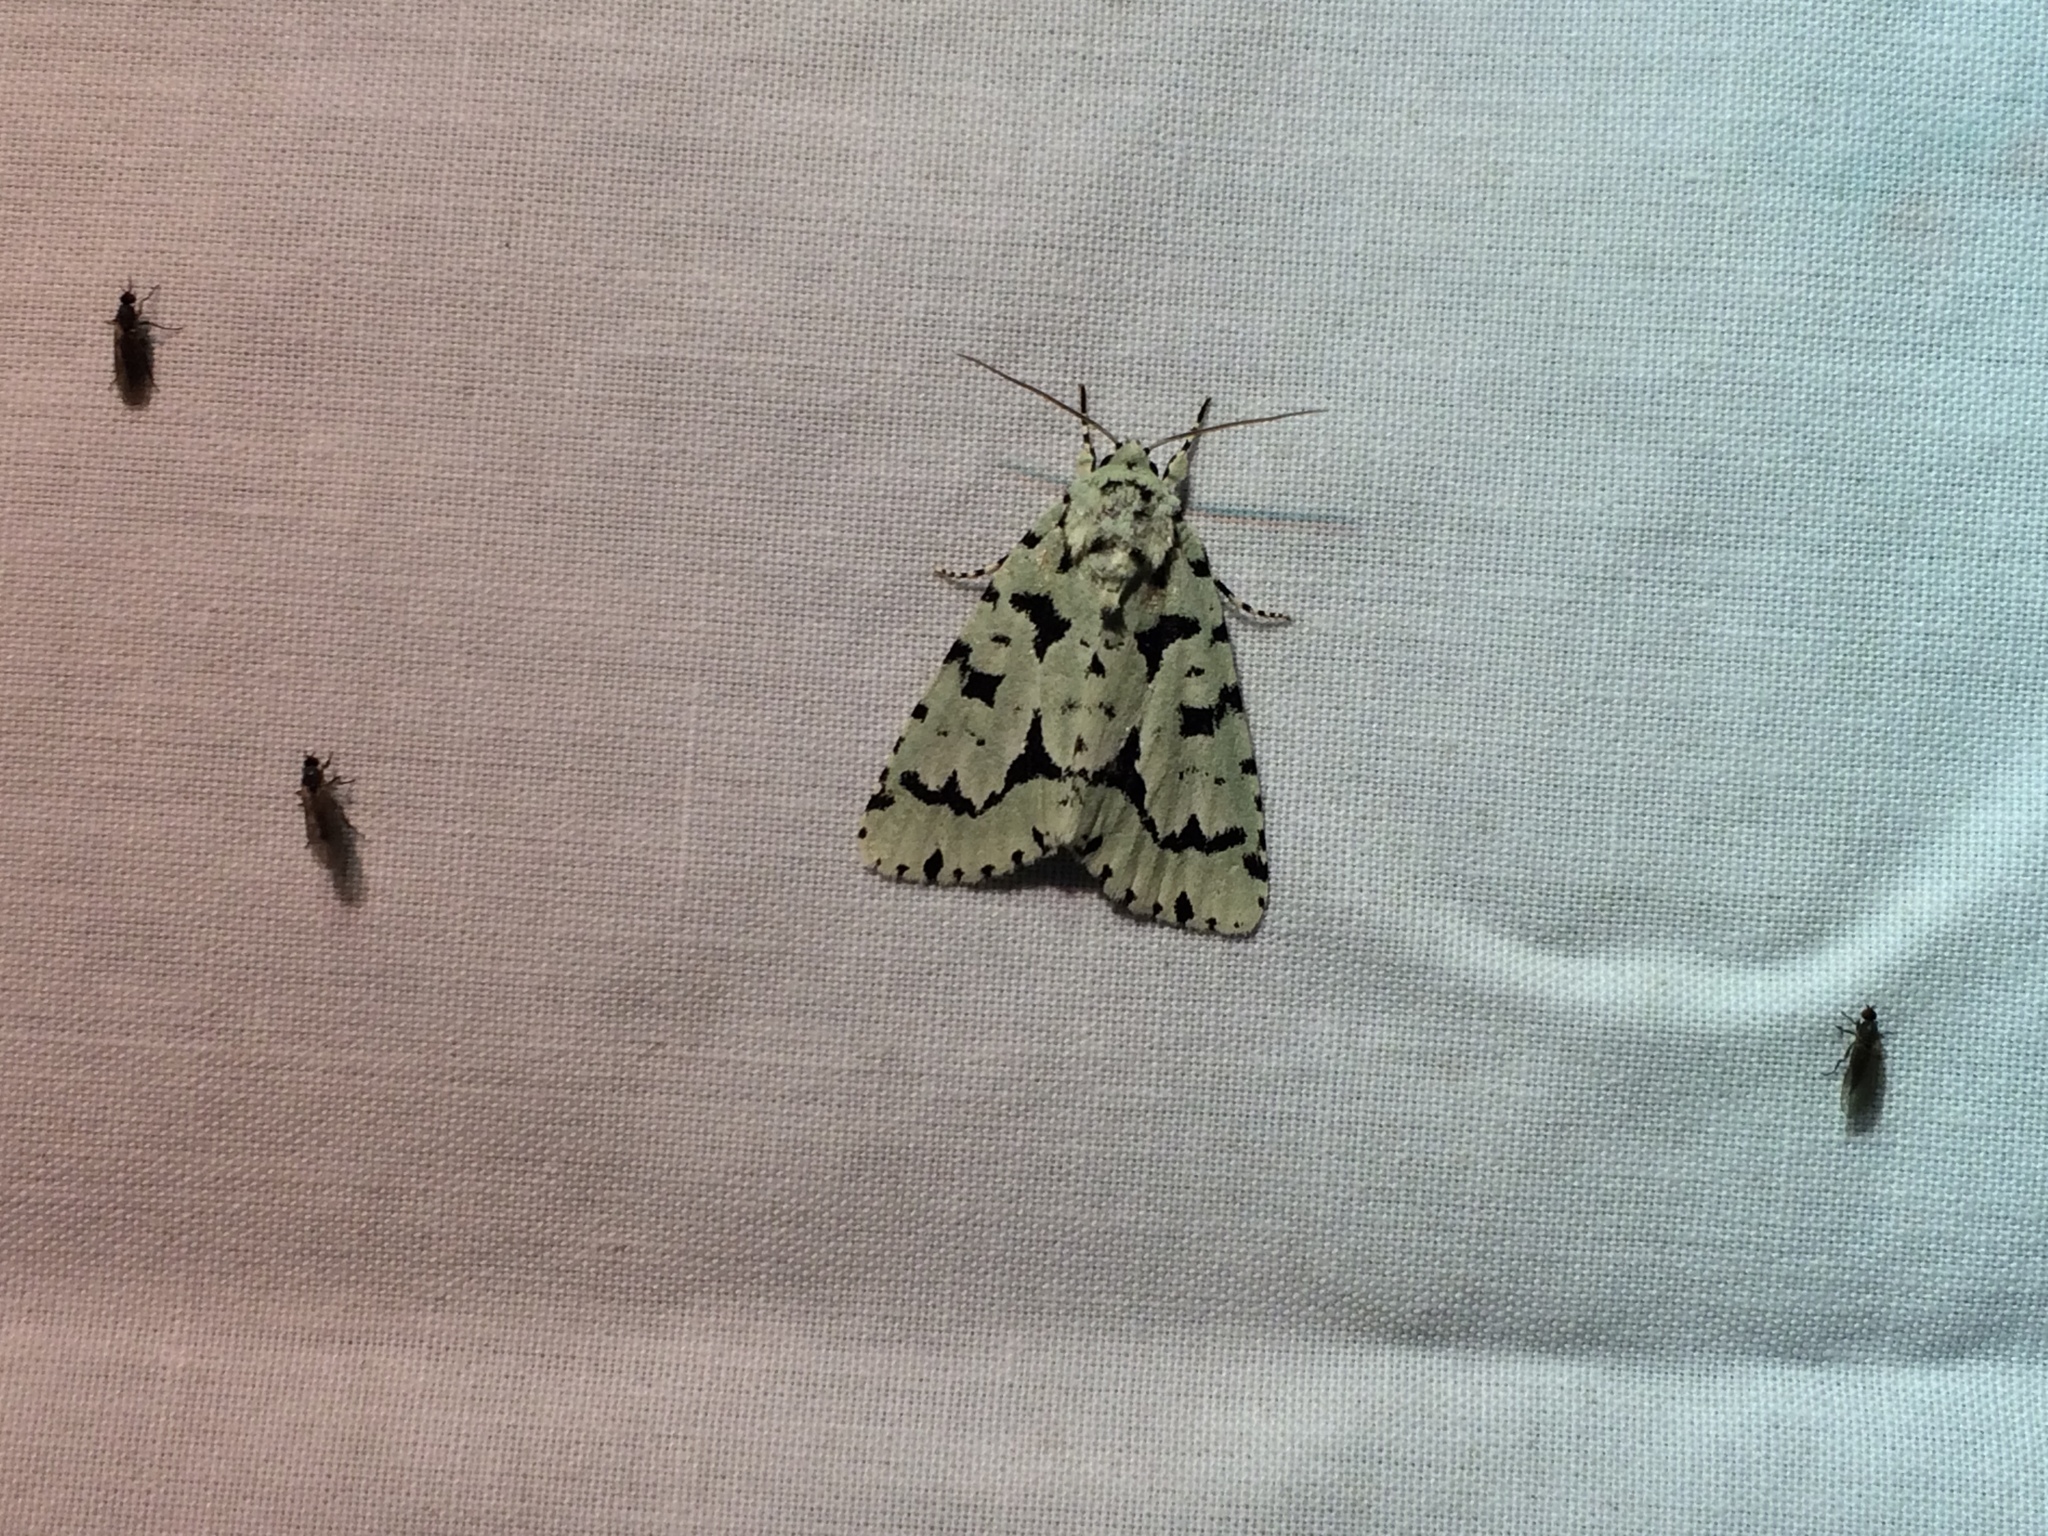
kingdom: Animalia
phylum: Arthropoda
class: Insecta
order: Lepidoptera
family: Noctuidae
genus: Acronicta
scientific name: Acronicta fallax
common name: Green marvel
